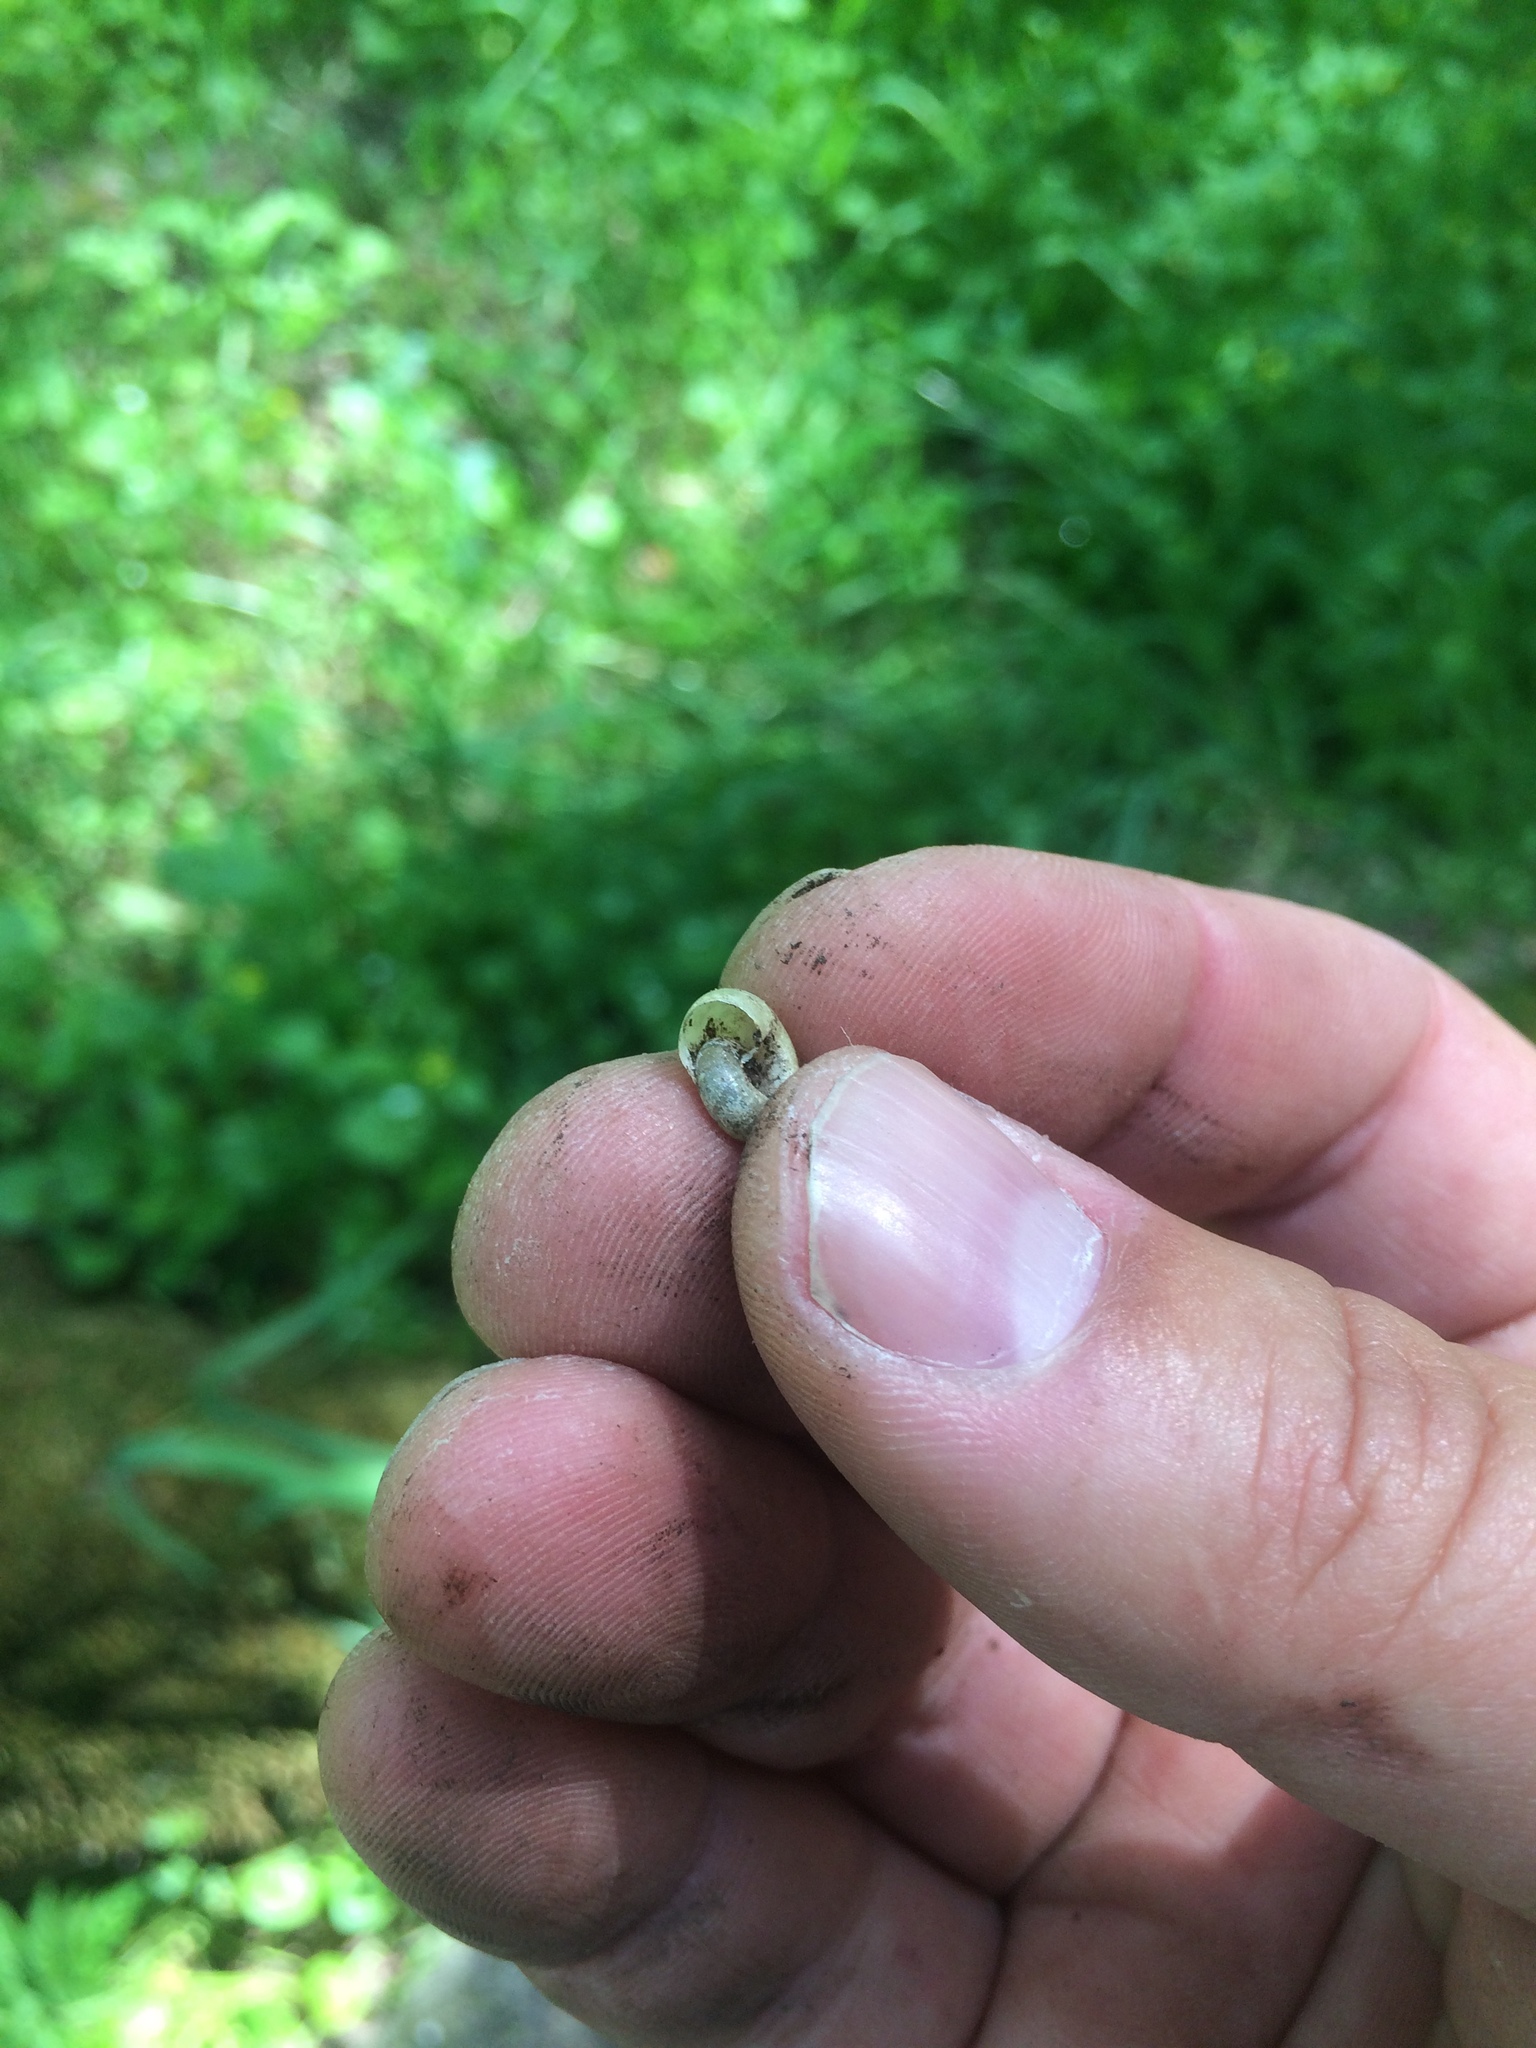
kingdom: Animalia
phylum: Mollusca
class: Gastropoda
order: Stylommatophora
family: Haplotrematidae
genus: Haplotrema
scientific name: Haplotrema minimum
